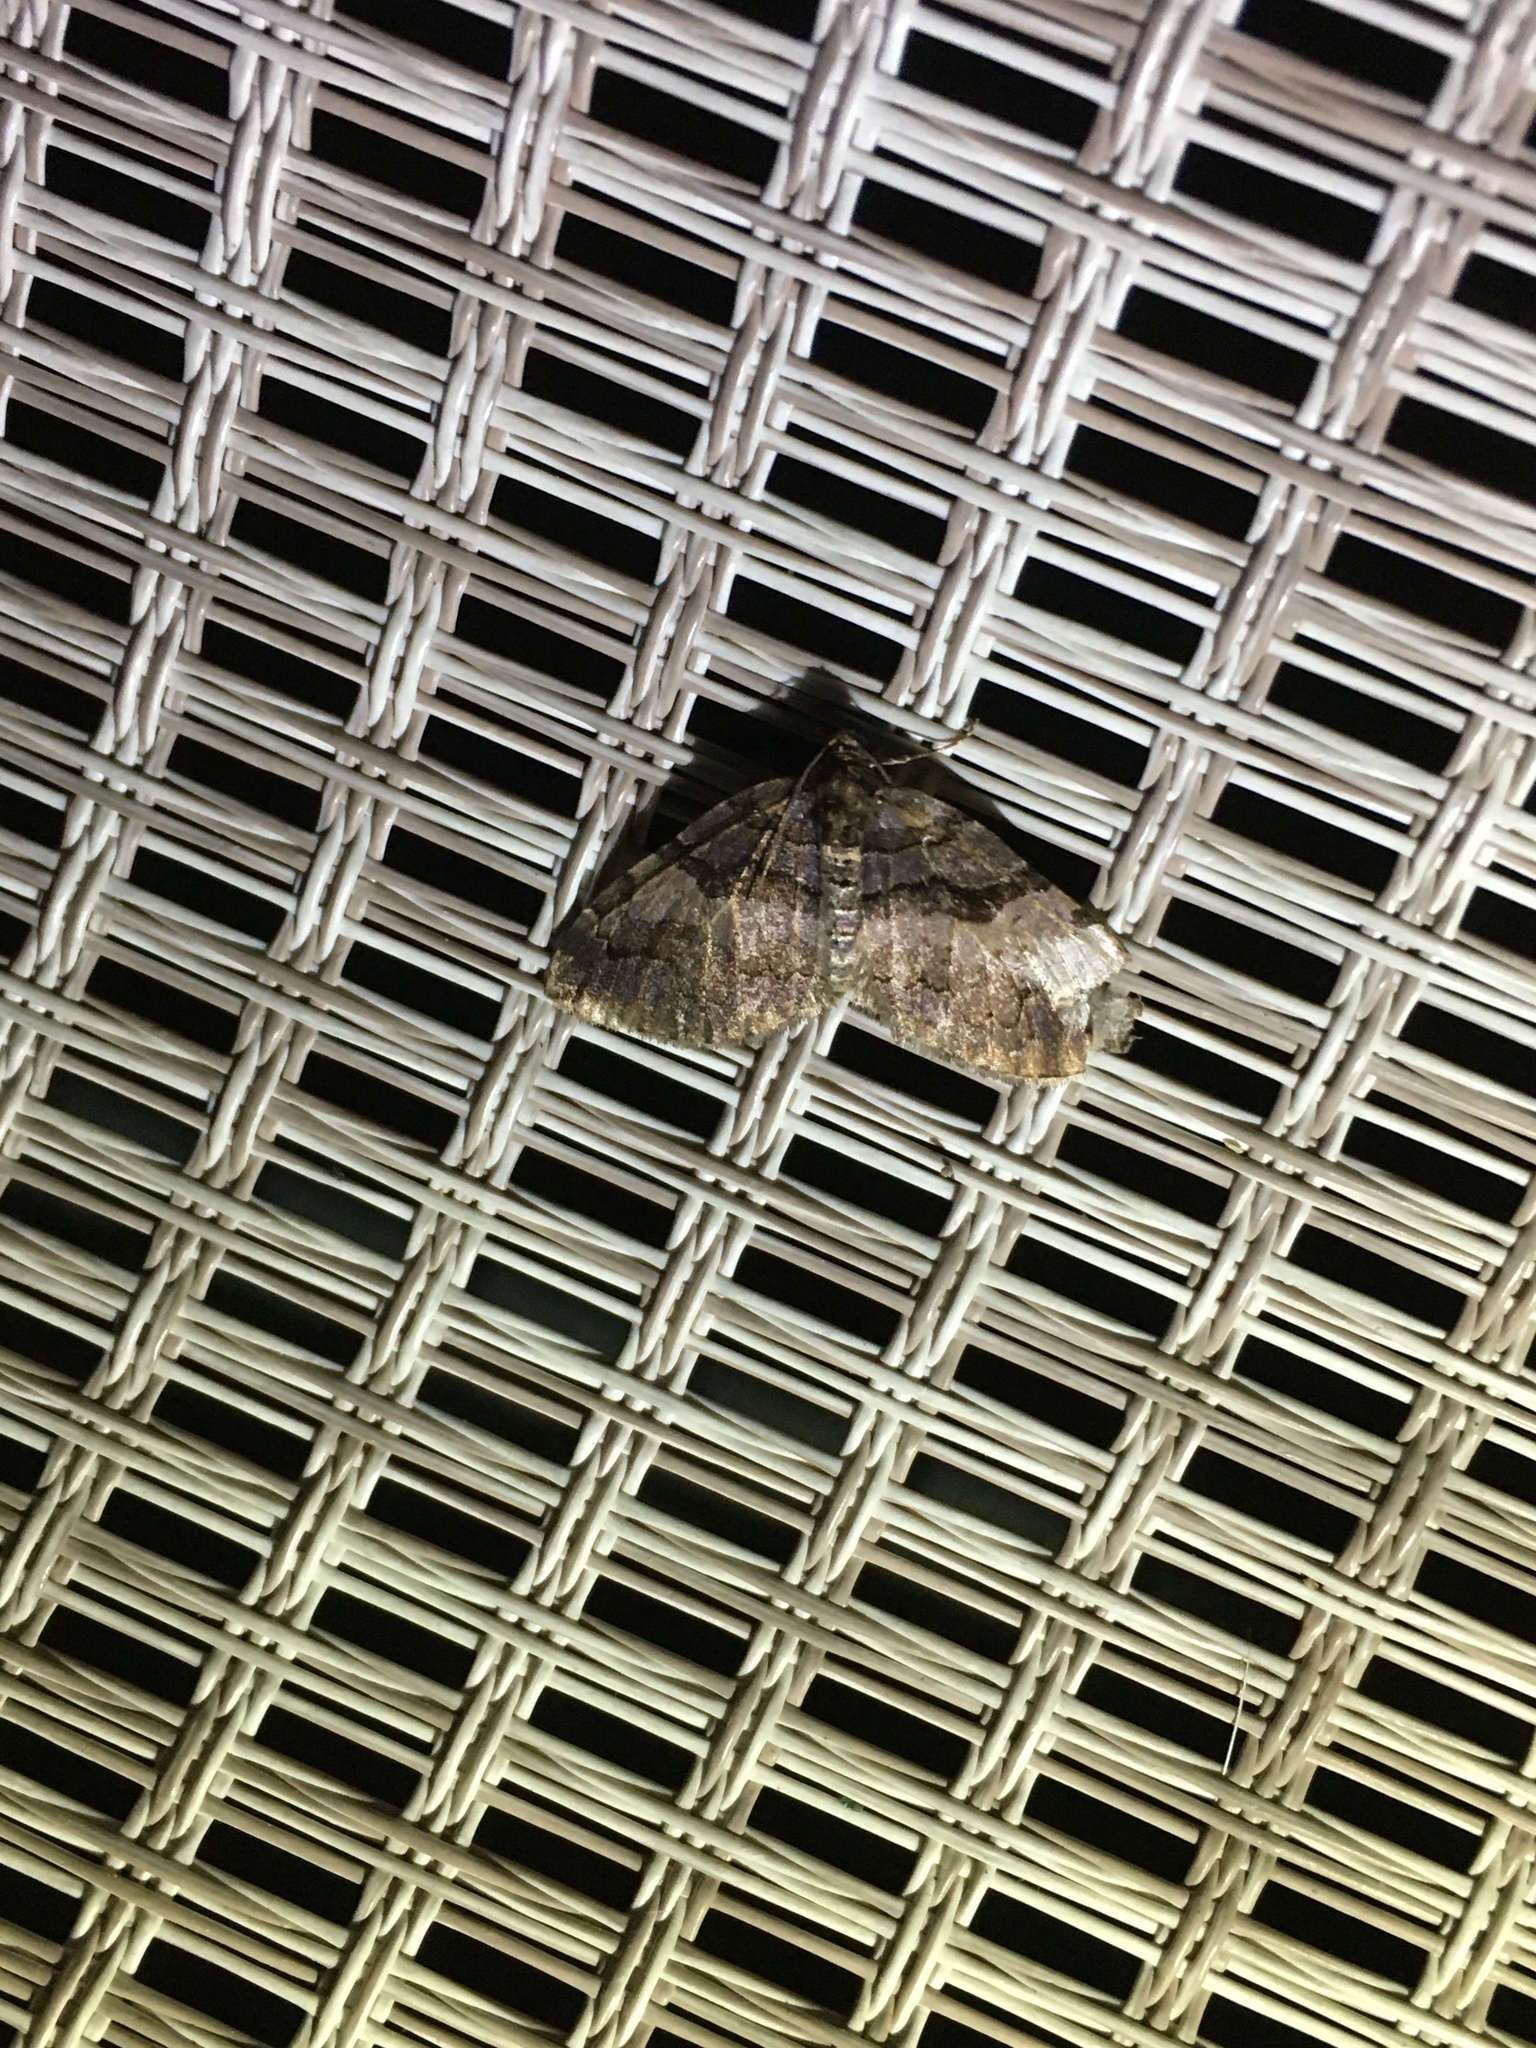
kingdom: Animalia
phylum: Arthropoda
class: Insecta
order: Lepidoptera
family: Geometridae
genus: Anticlea
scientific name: Anticlea vasiliata
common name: Variable carpet
